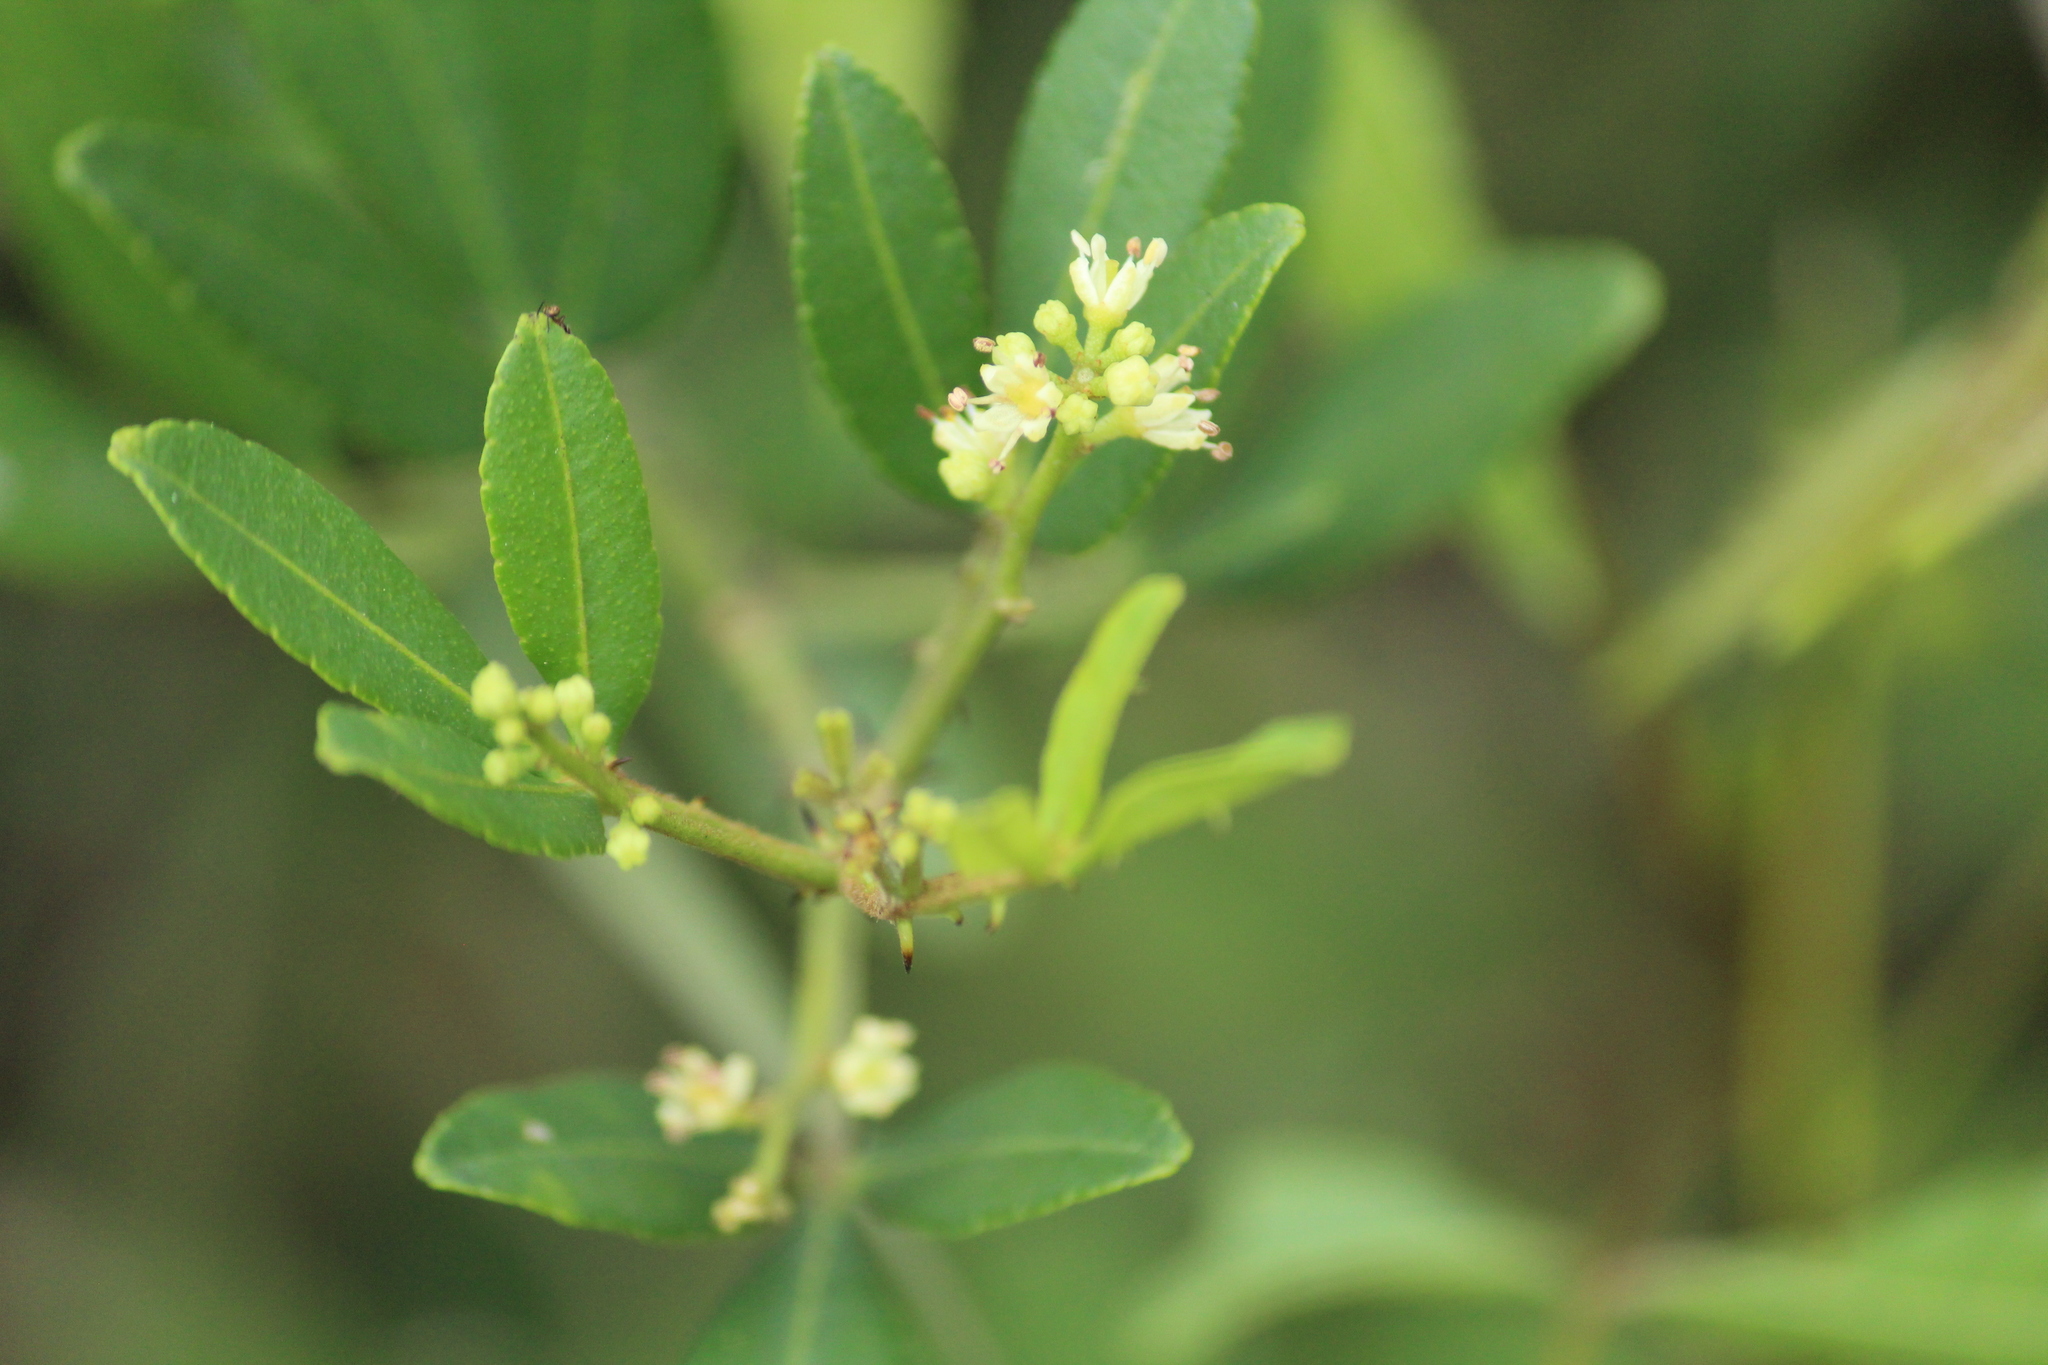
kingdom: Plantae
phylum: Tracheophyta
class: Magnoliopsida
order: Sapindales
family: Rutaceae
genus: Zanthoxylum
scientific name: Zanthoxylum asiaticum
